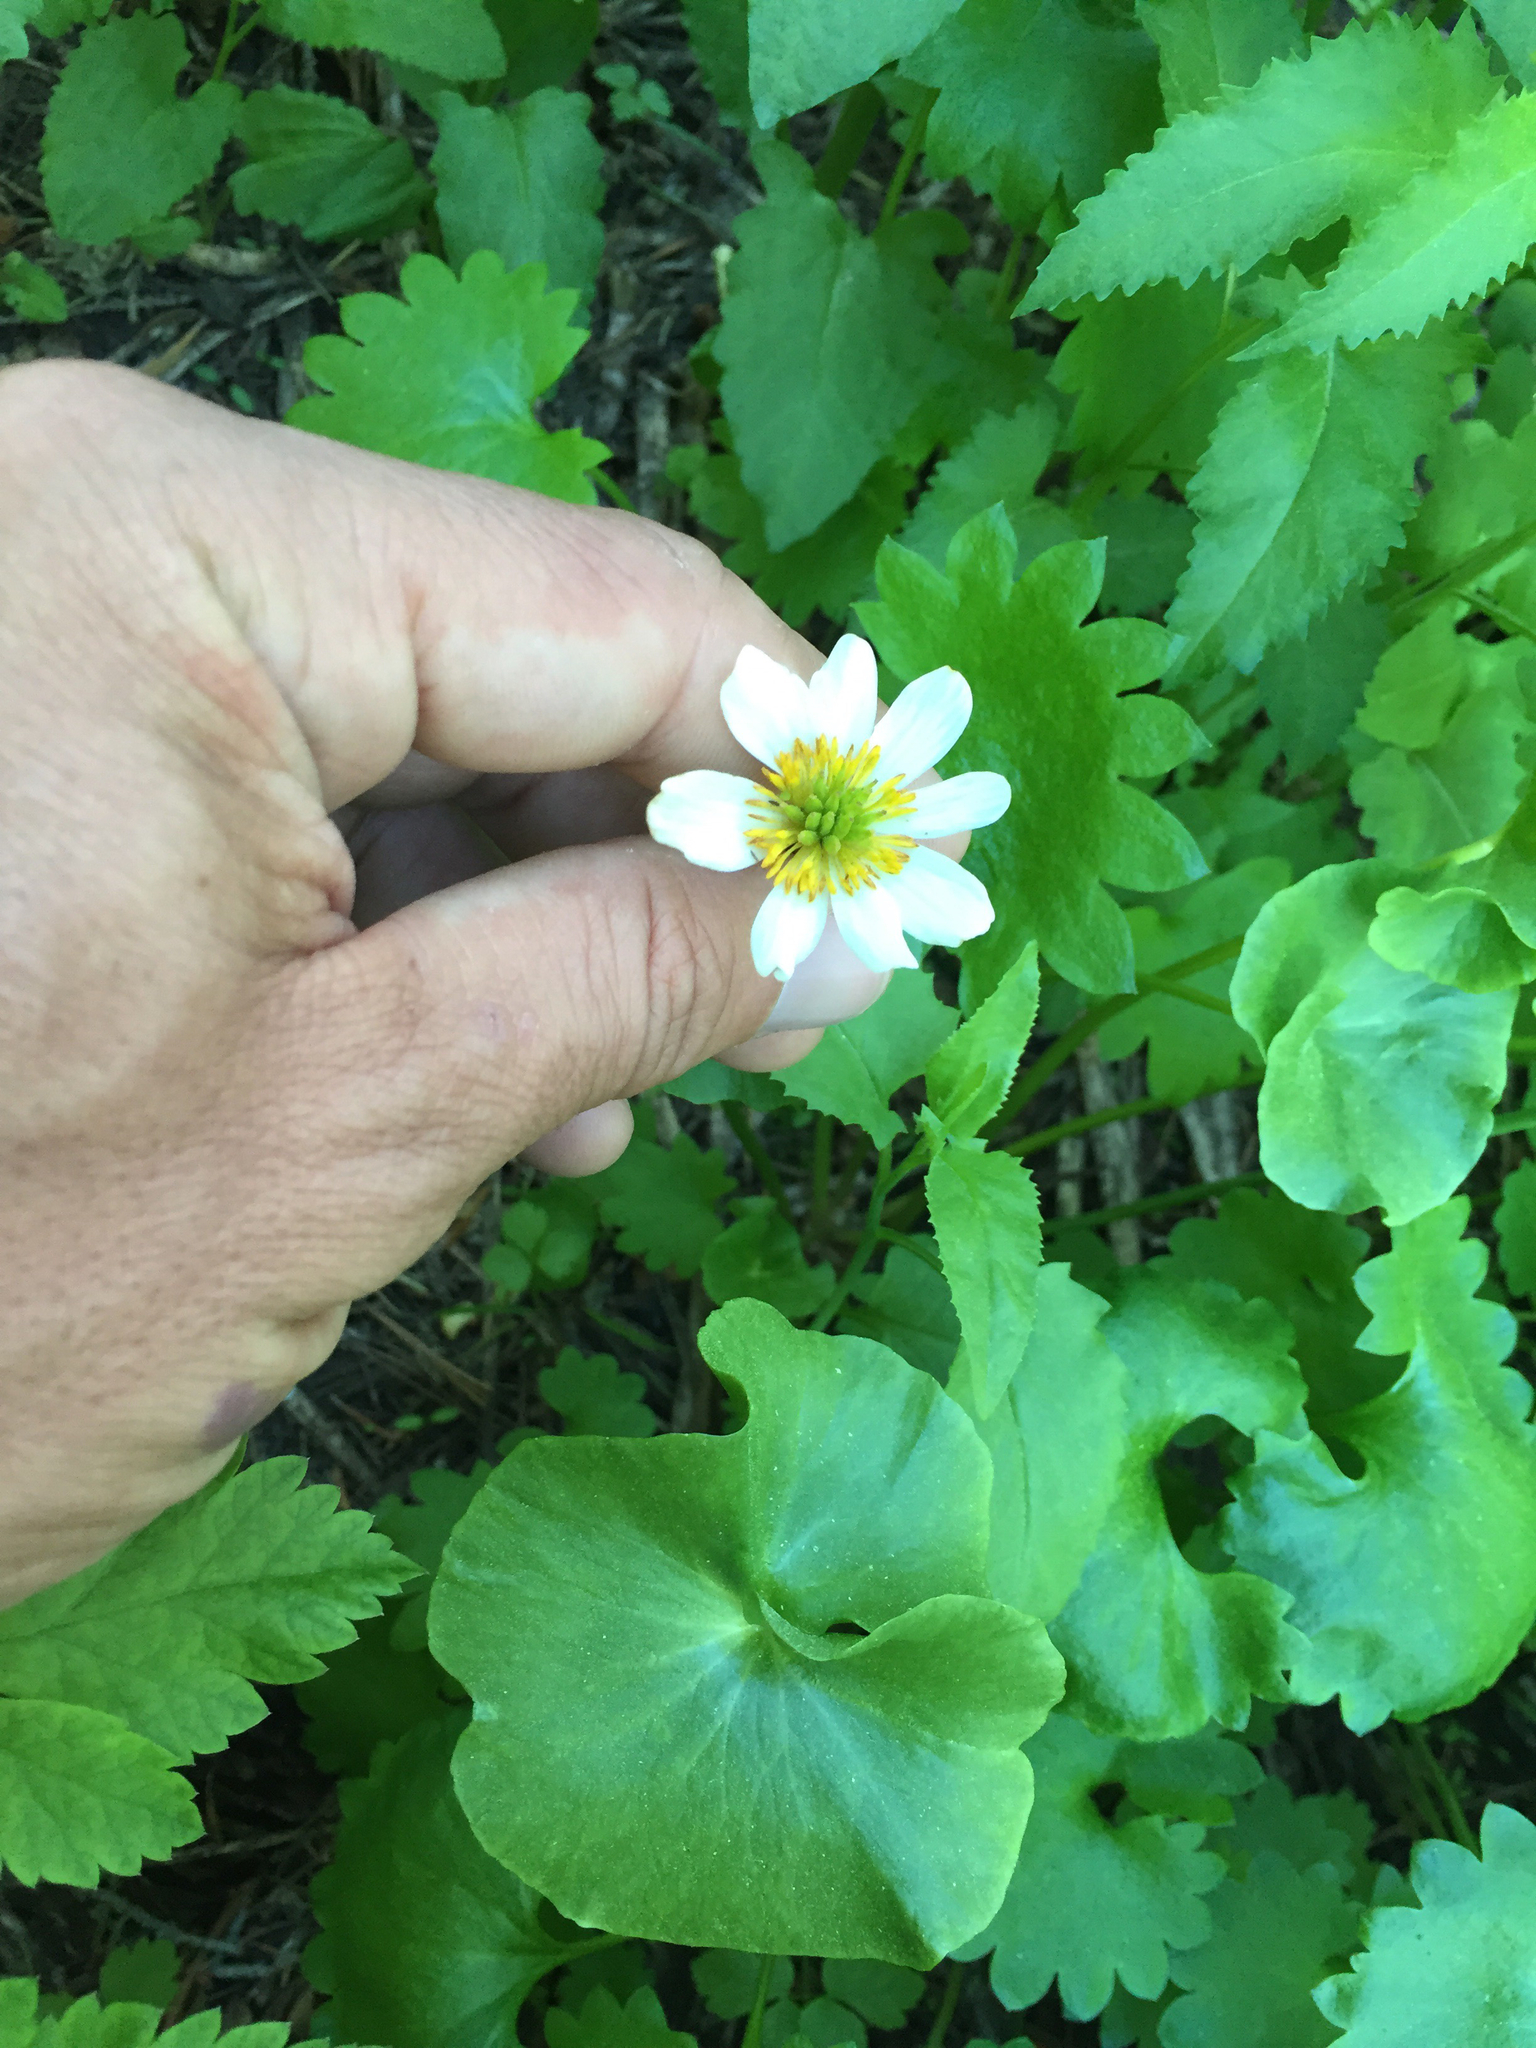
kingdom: Plantae
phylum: Tracheophyta
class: Magnoliopsida
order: Ranunculales
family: Ranunculaceae
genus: Caltha
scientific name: Caltha leptosepala
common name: Elkslip
